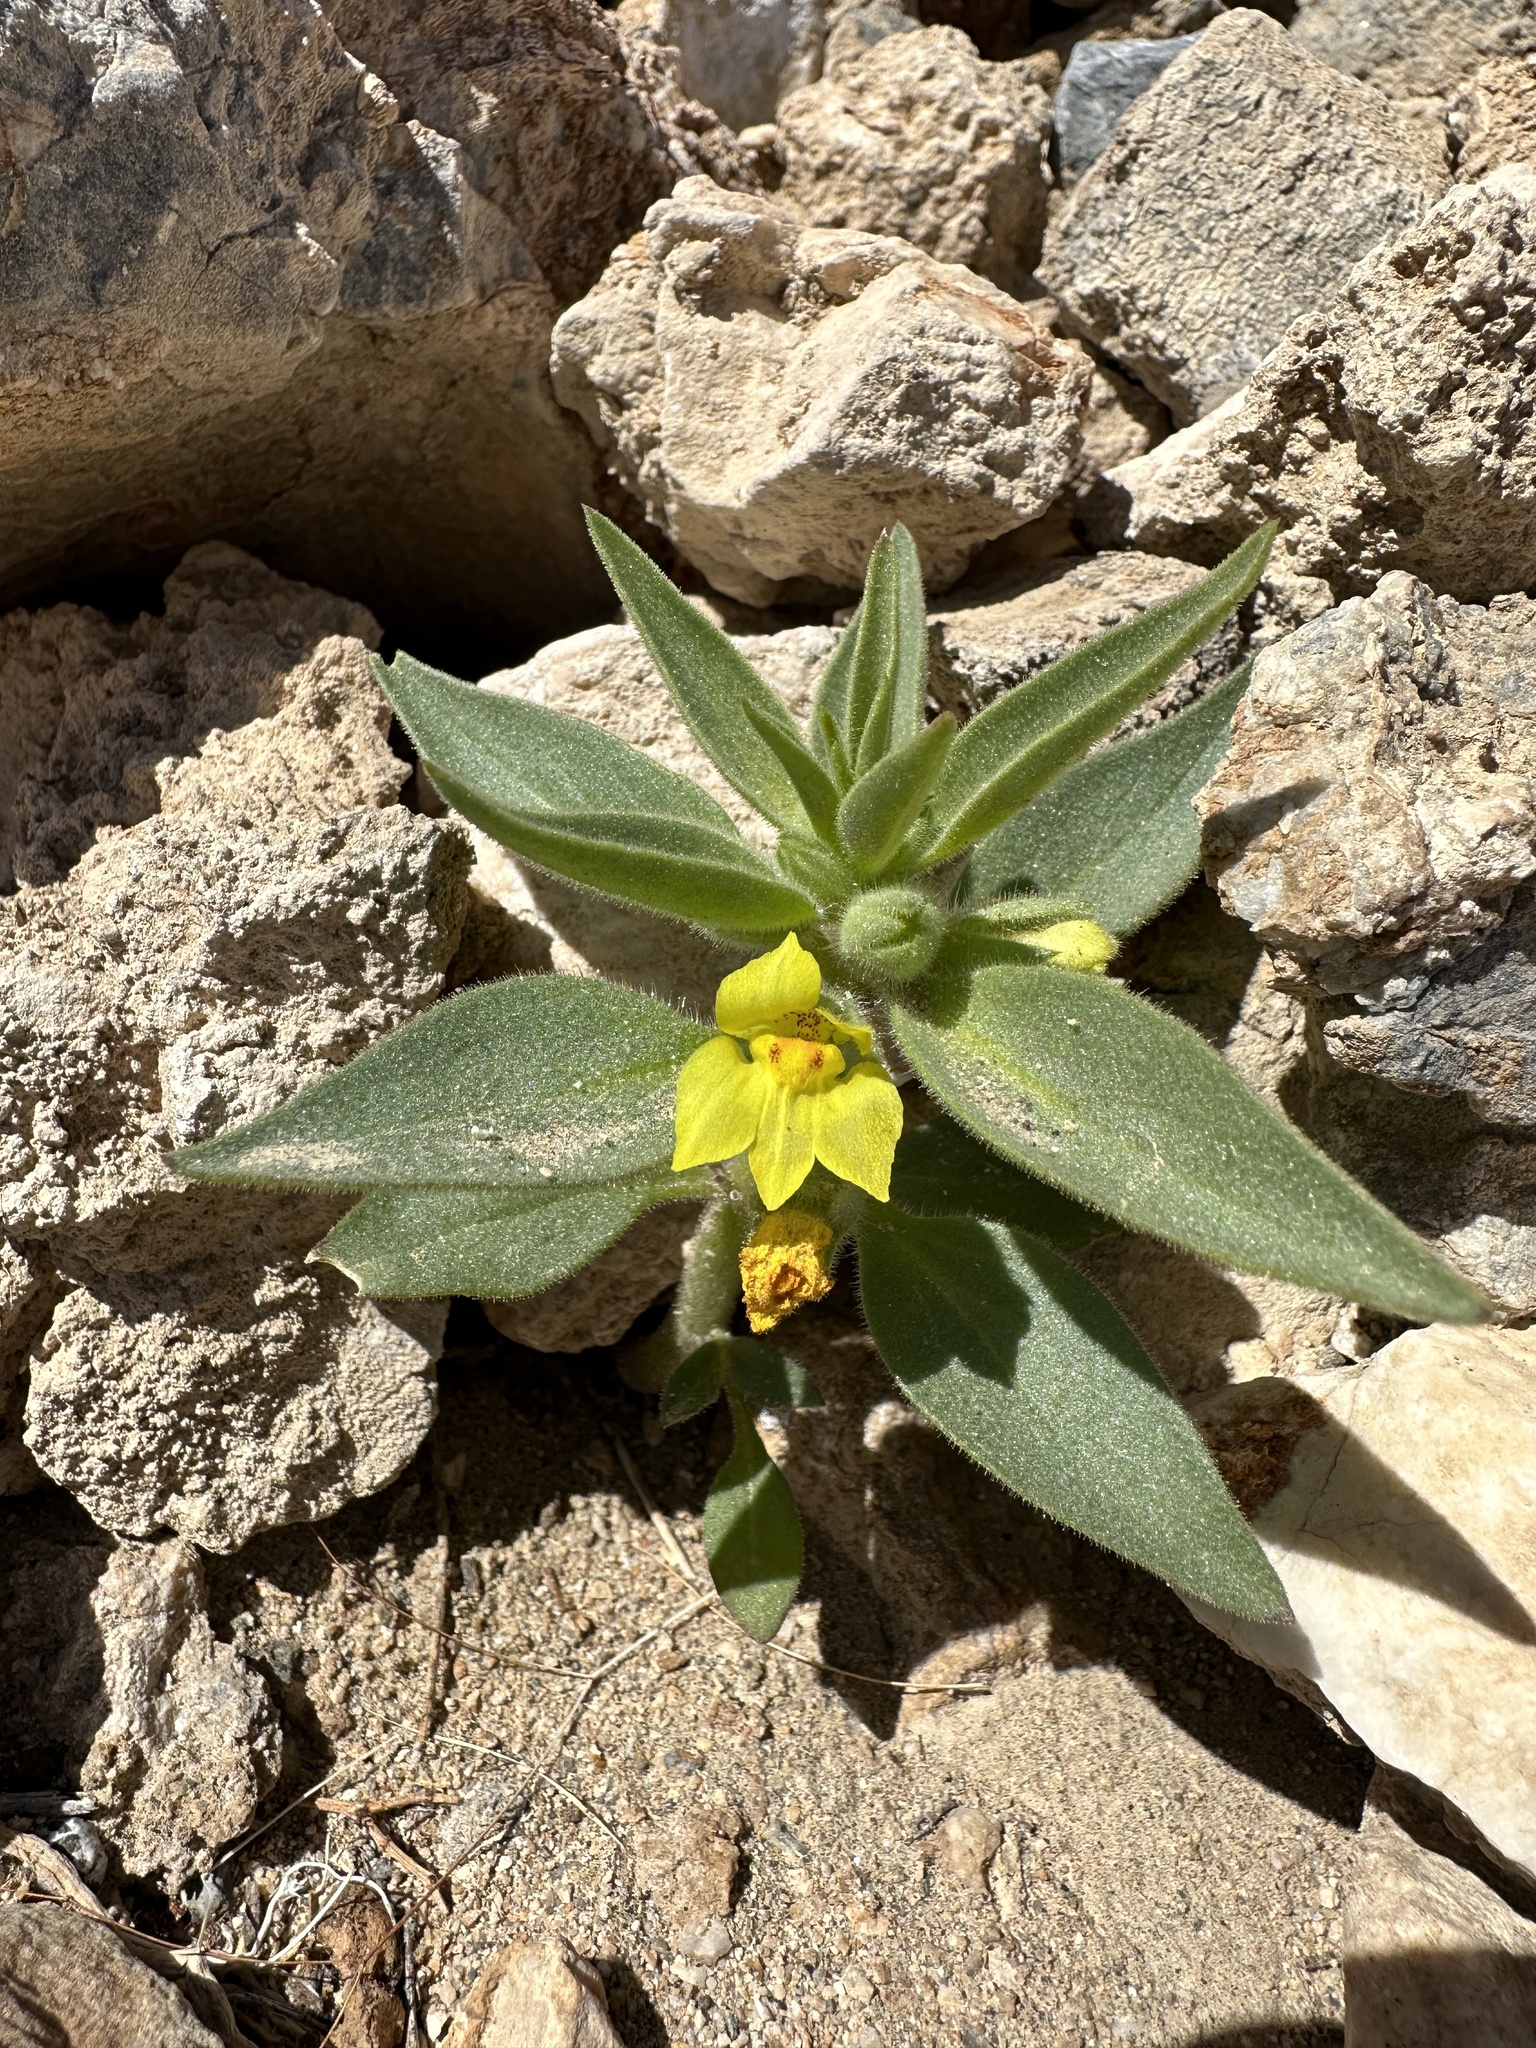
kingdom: Plantae
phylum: Tracheophyta
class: Magnoliopsida
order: Lamiales
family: Plantaginaceae
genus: Mohavea
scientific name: Mohavea breviflora
